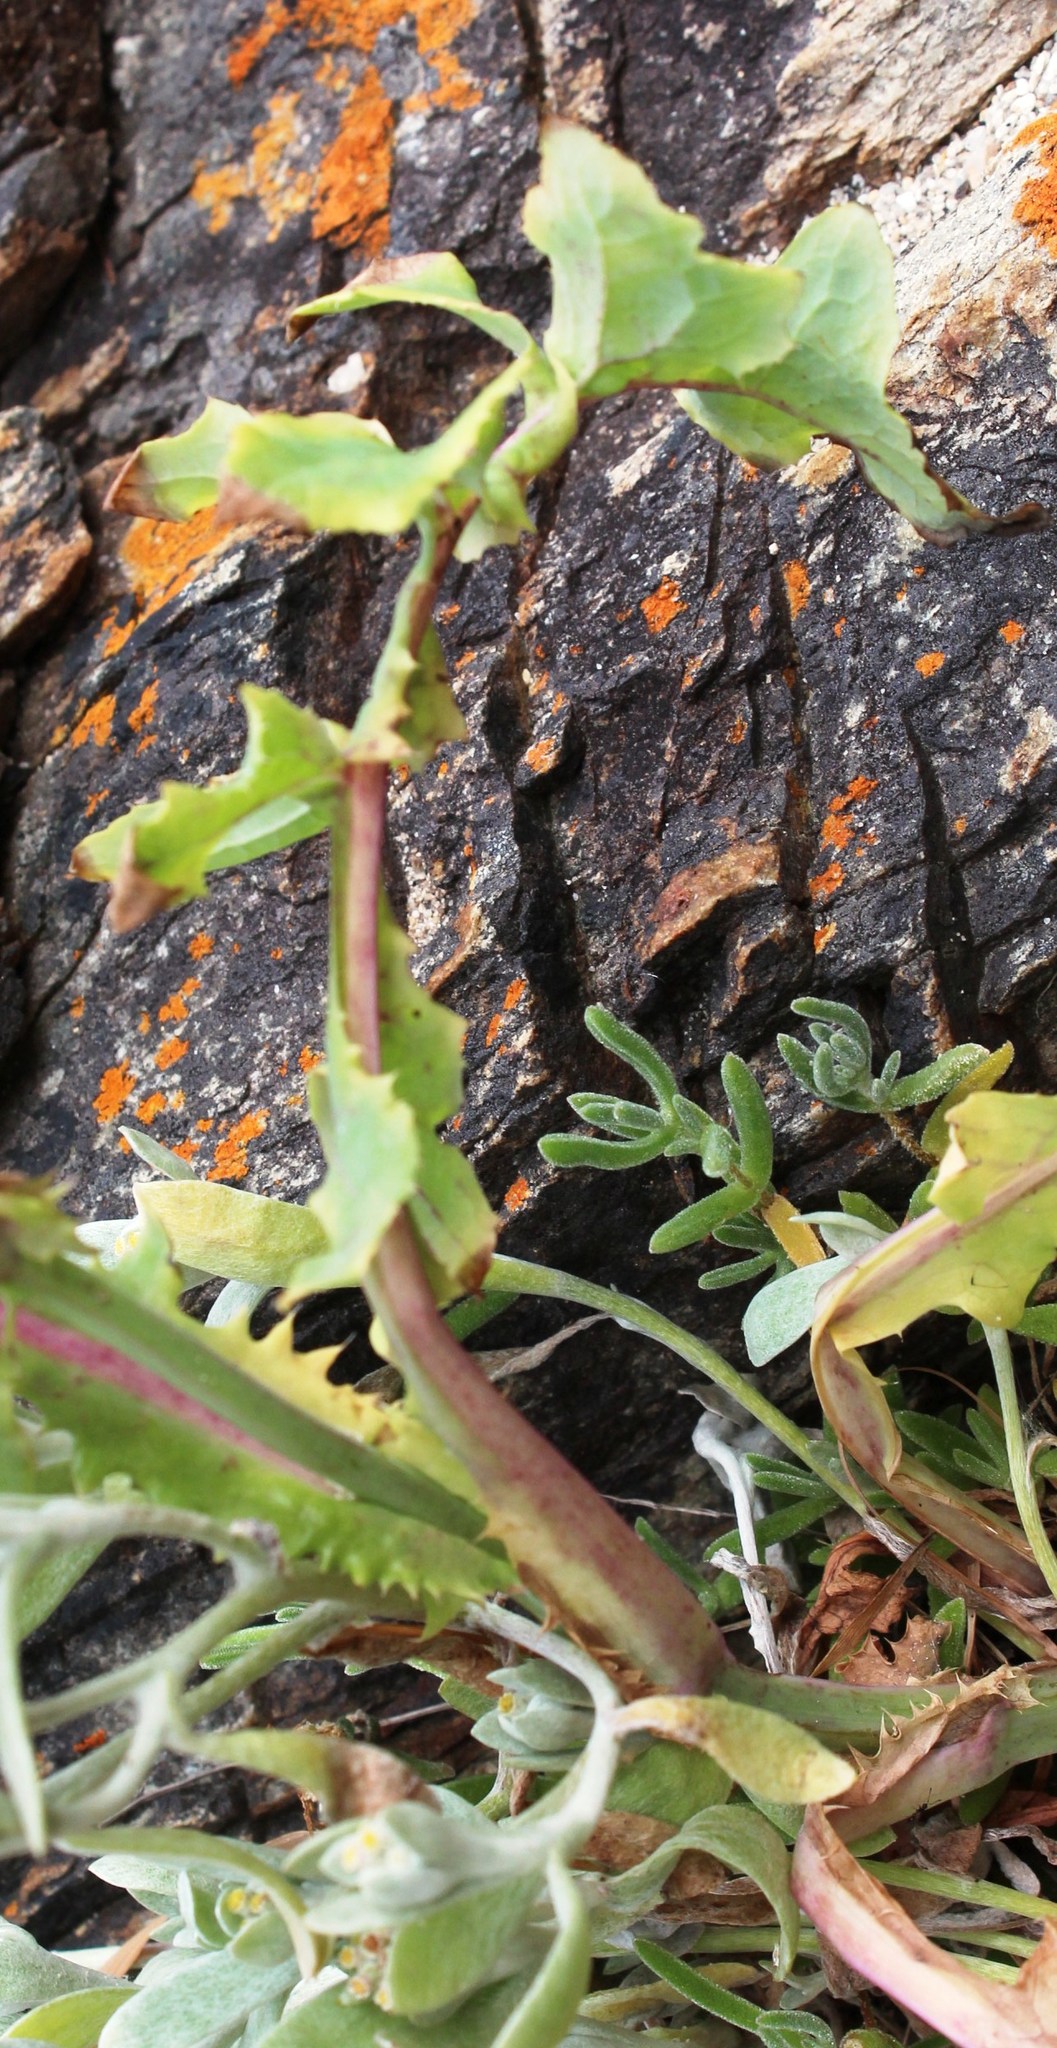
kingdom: Plantae
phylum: Tracheophyta
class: Magnoliopsida
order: Asterales
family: Asteraceae
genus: Sonchus
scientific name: Sonchus oleraceus
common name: Common sowthistle
